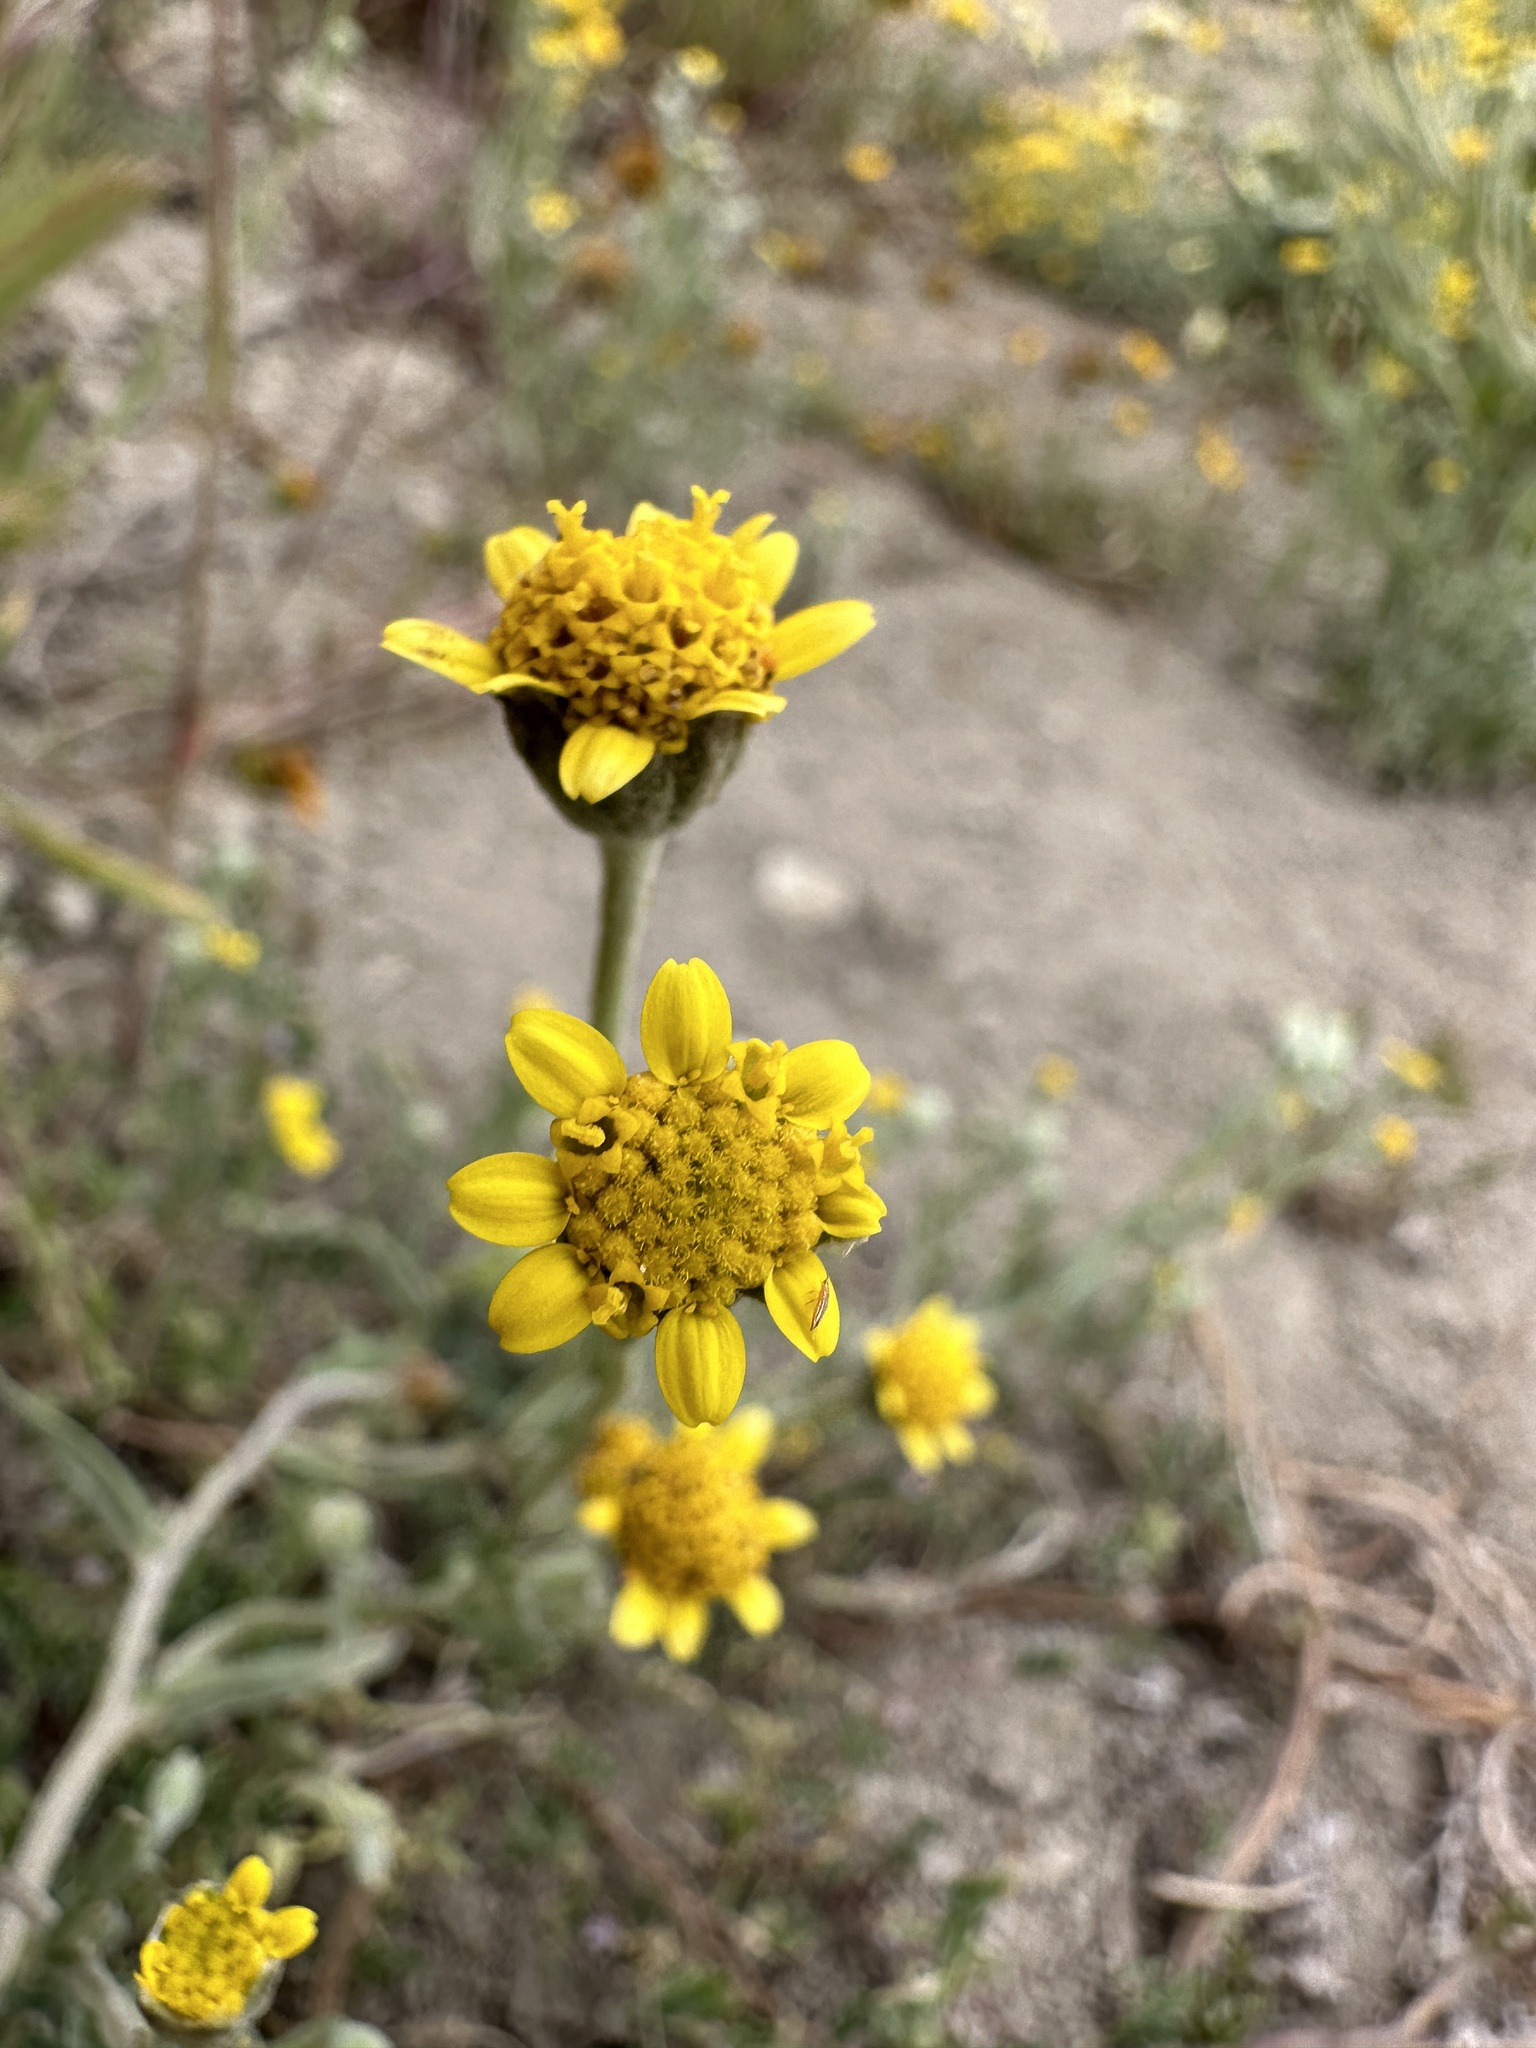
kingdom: Plantae
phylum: Tracheophyta
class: Magnoliopsida
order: Asterales
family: Asteraceae
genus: Monolopia
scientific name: Monolopia stricta
